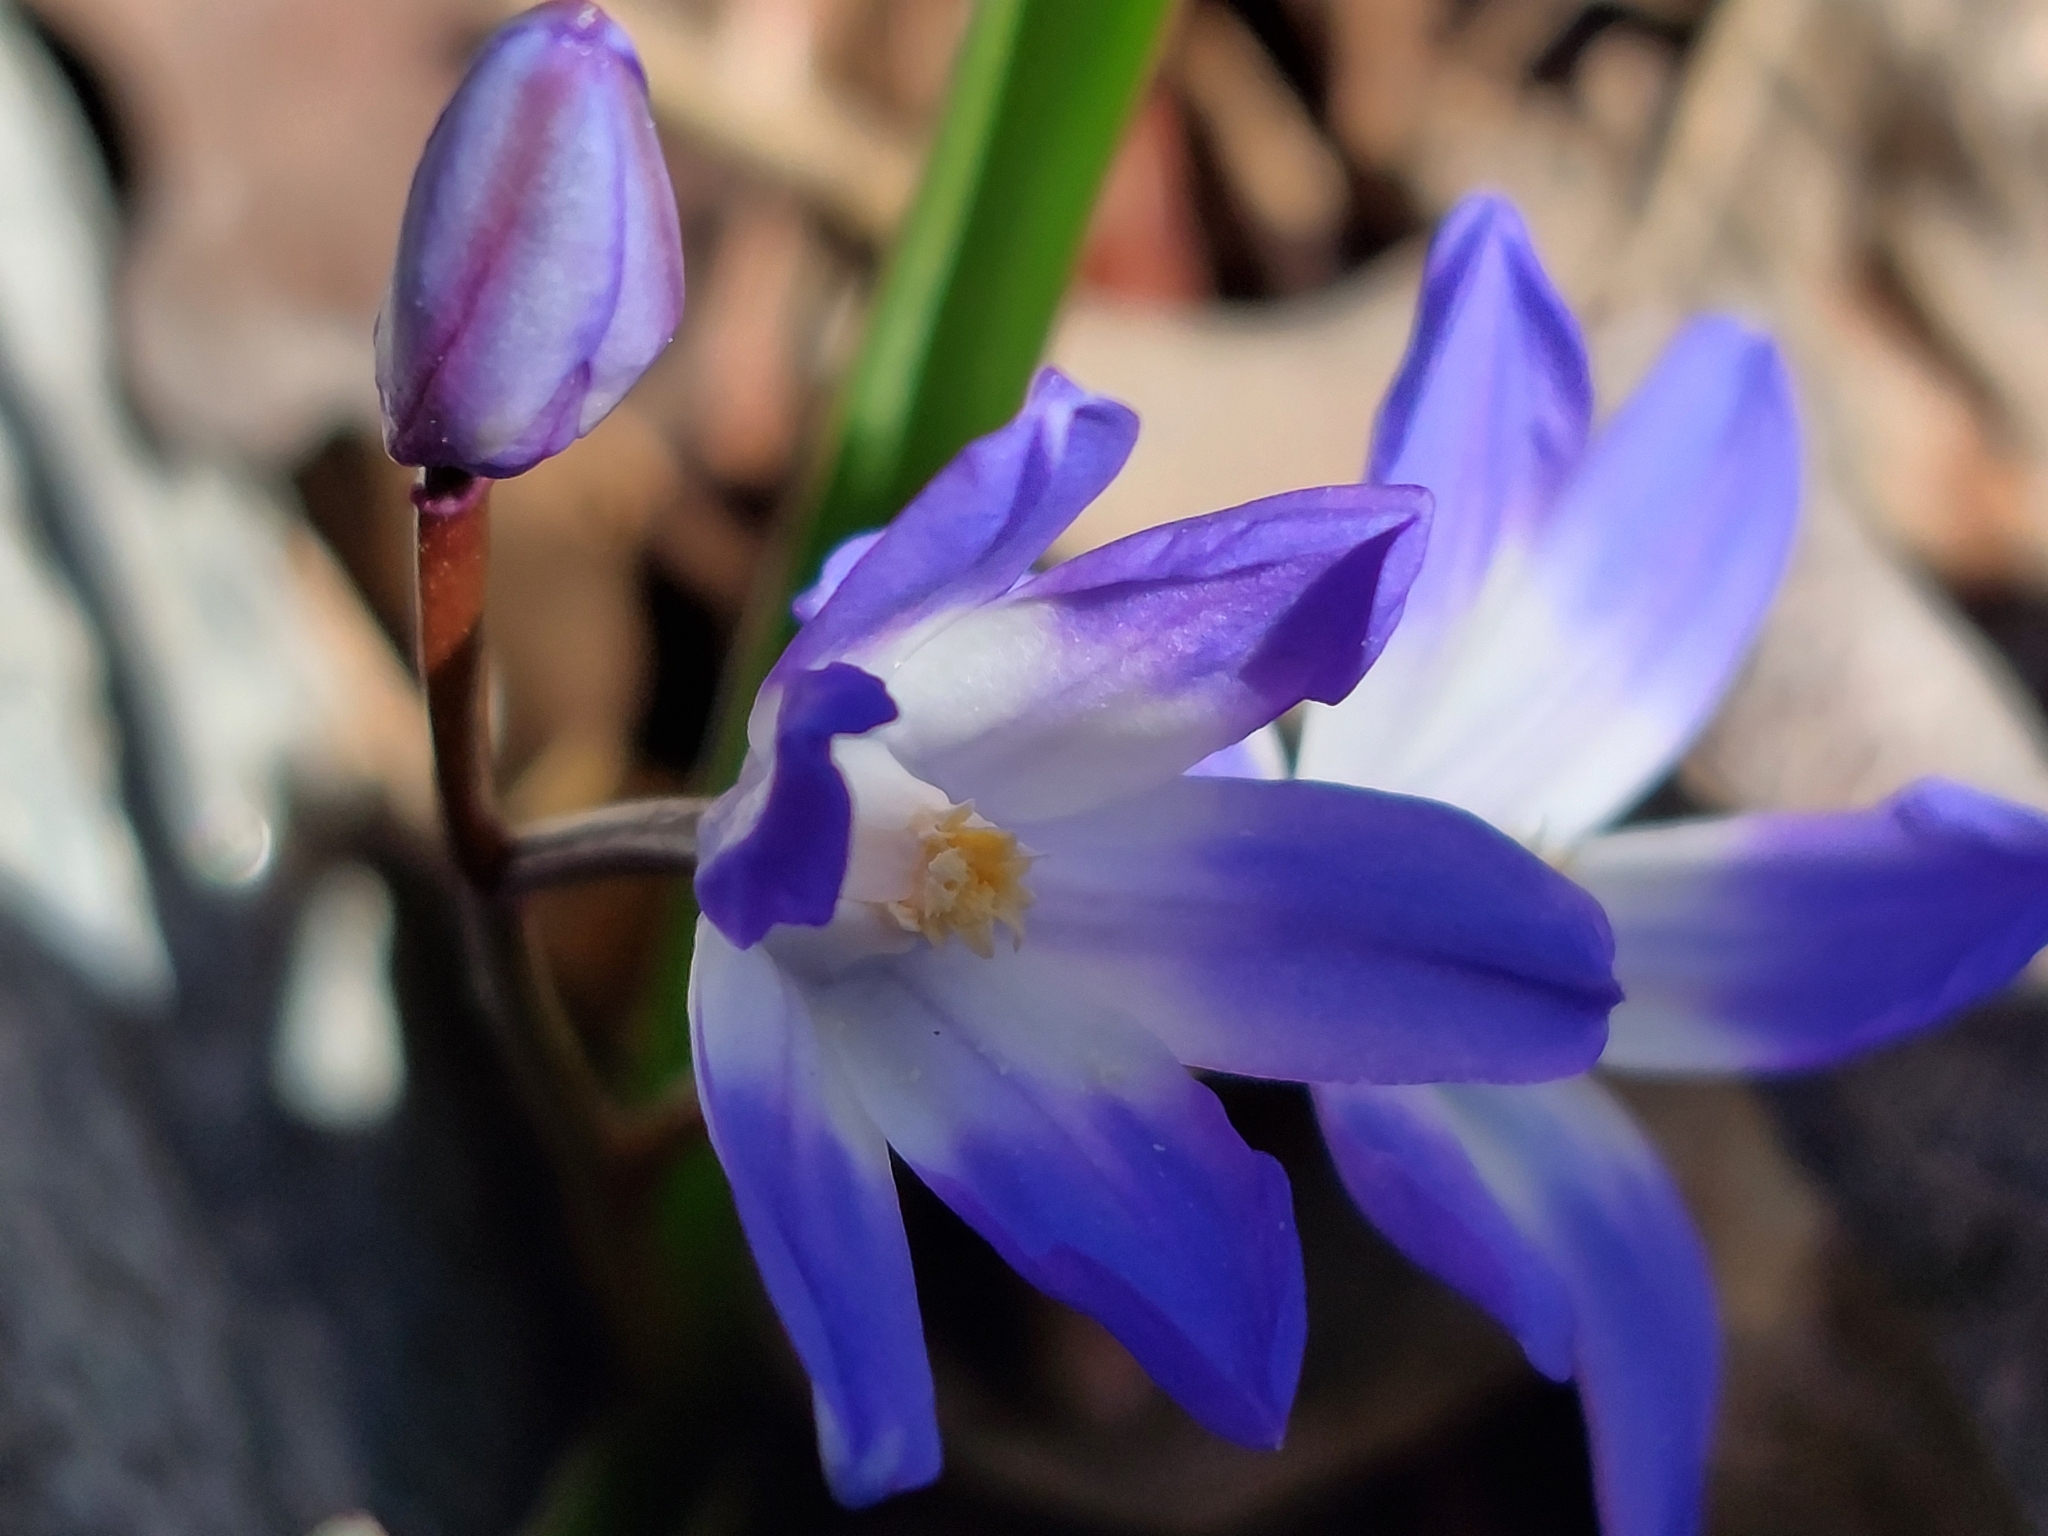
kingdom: Plantae
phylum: Tracheophyta
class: Liliopsida
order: Asparagales
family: Asparagaceae
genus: Scilla
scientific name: Scilla forbesii
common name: Glory-of-the-snow
